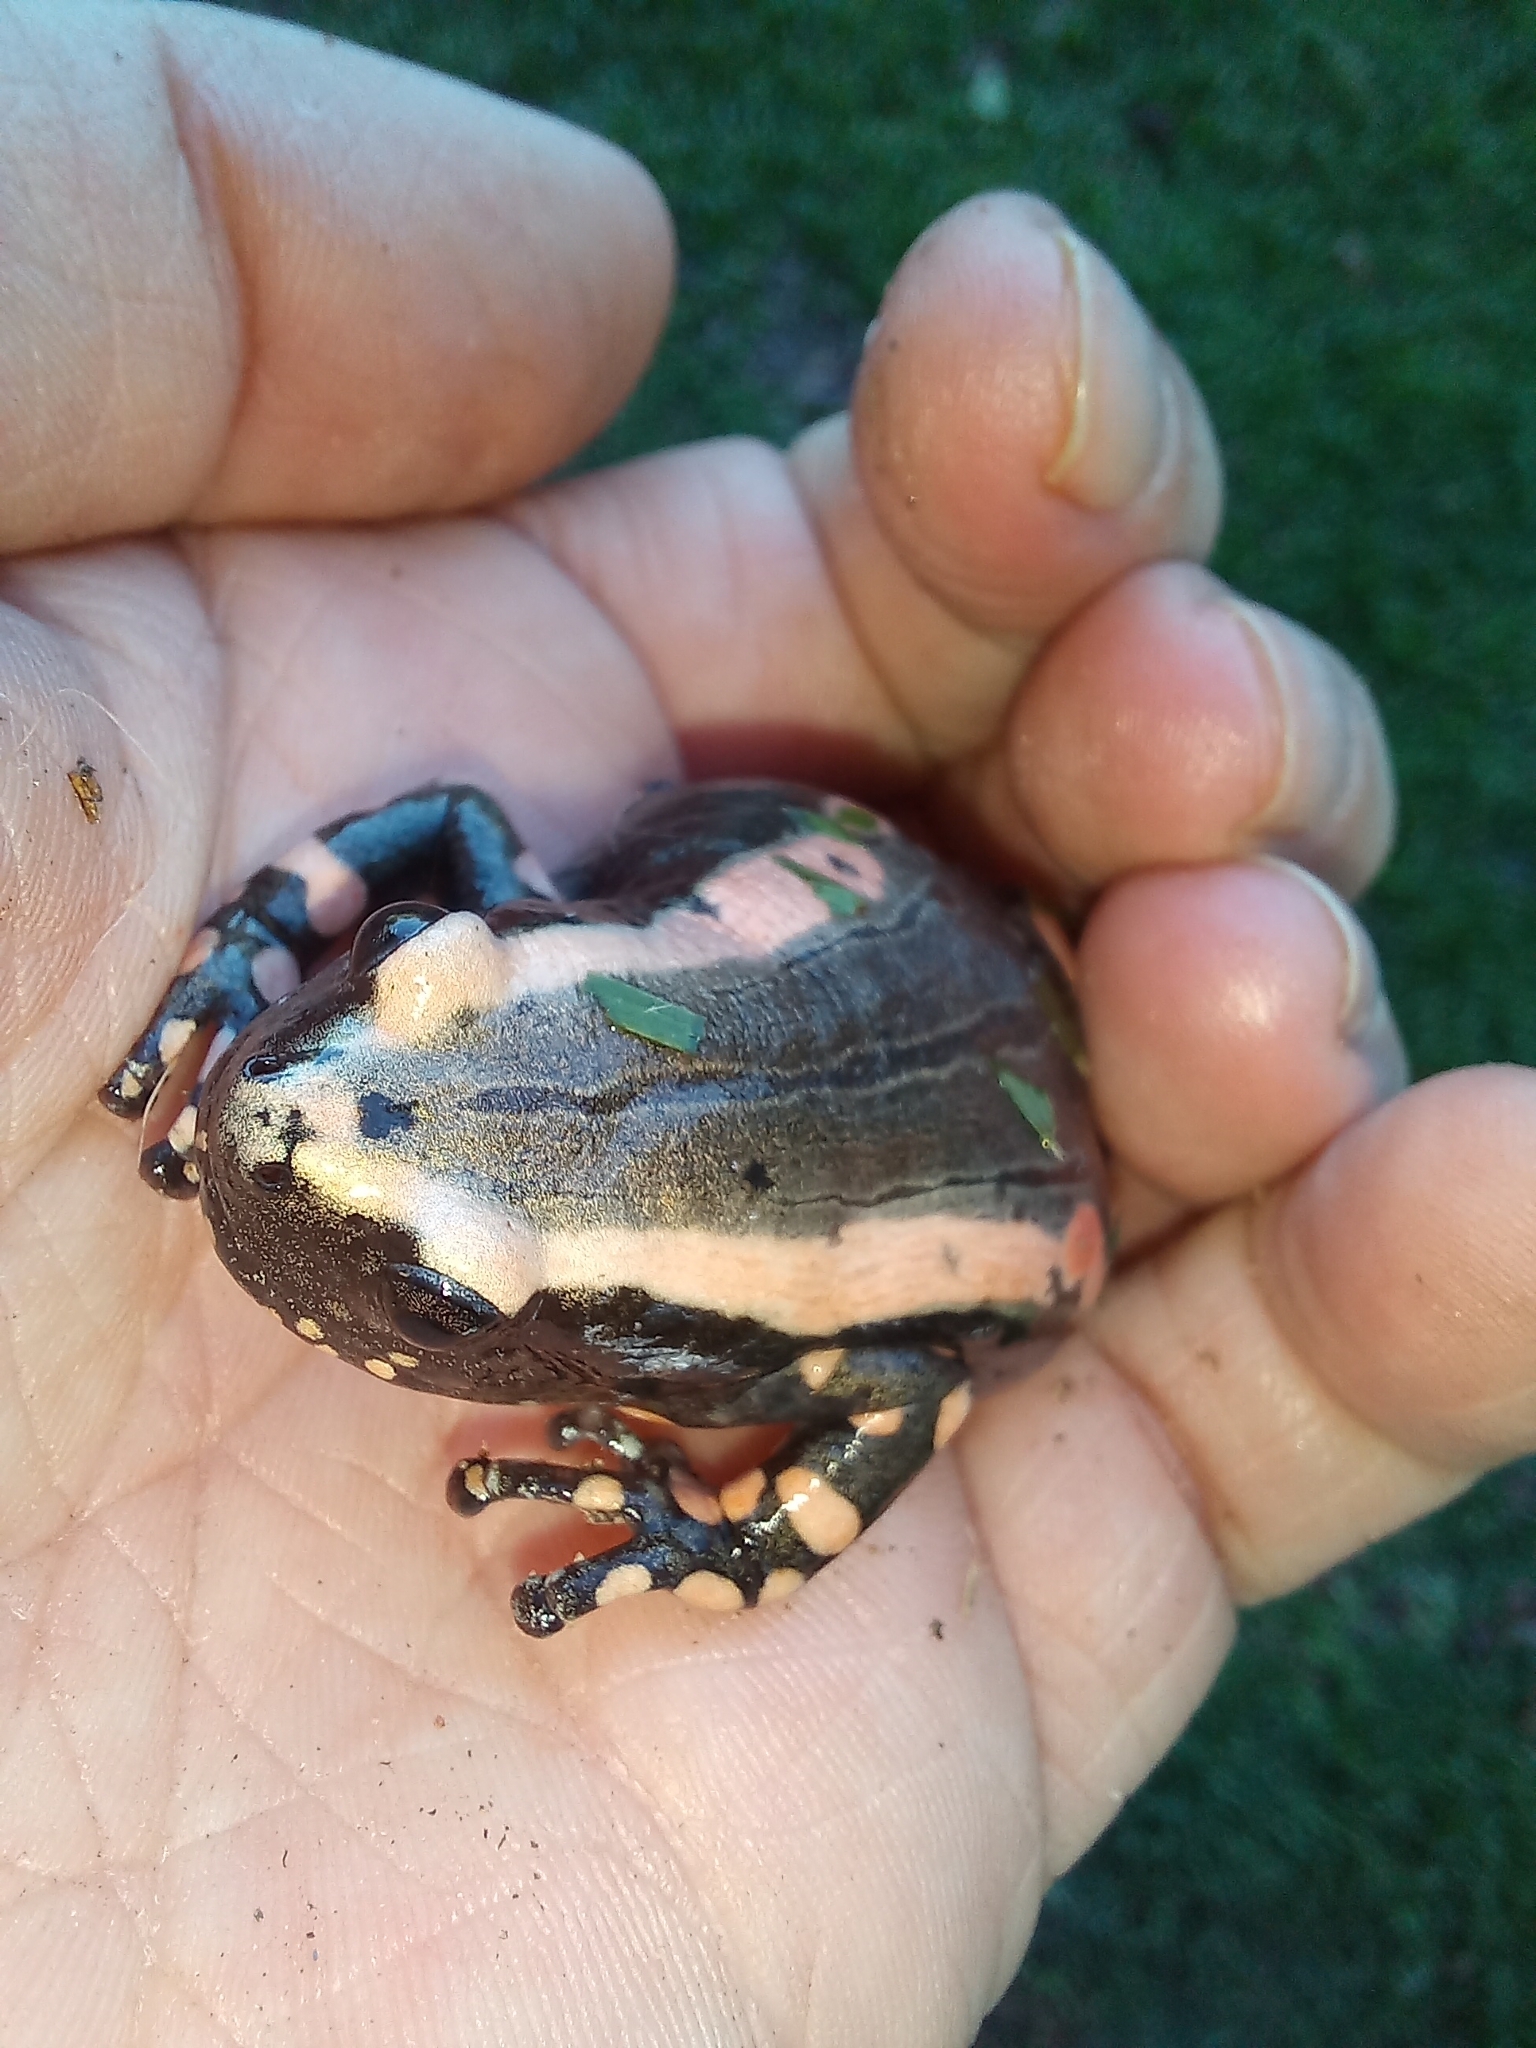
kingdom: Animalia
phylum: Chordata
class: Amphibia
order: Anura
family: Microhylidae
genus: Phrynomantis
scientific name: Phrynomantis bifasciatus
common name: Banded rubber frog
